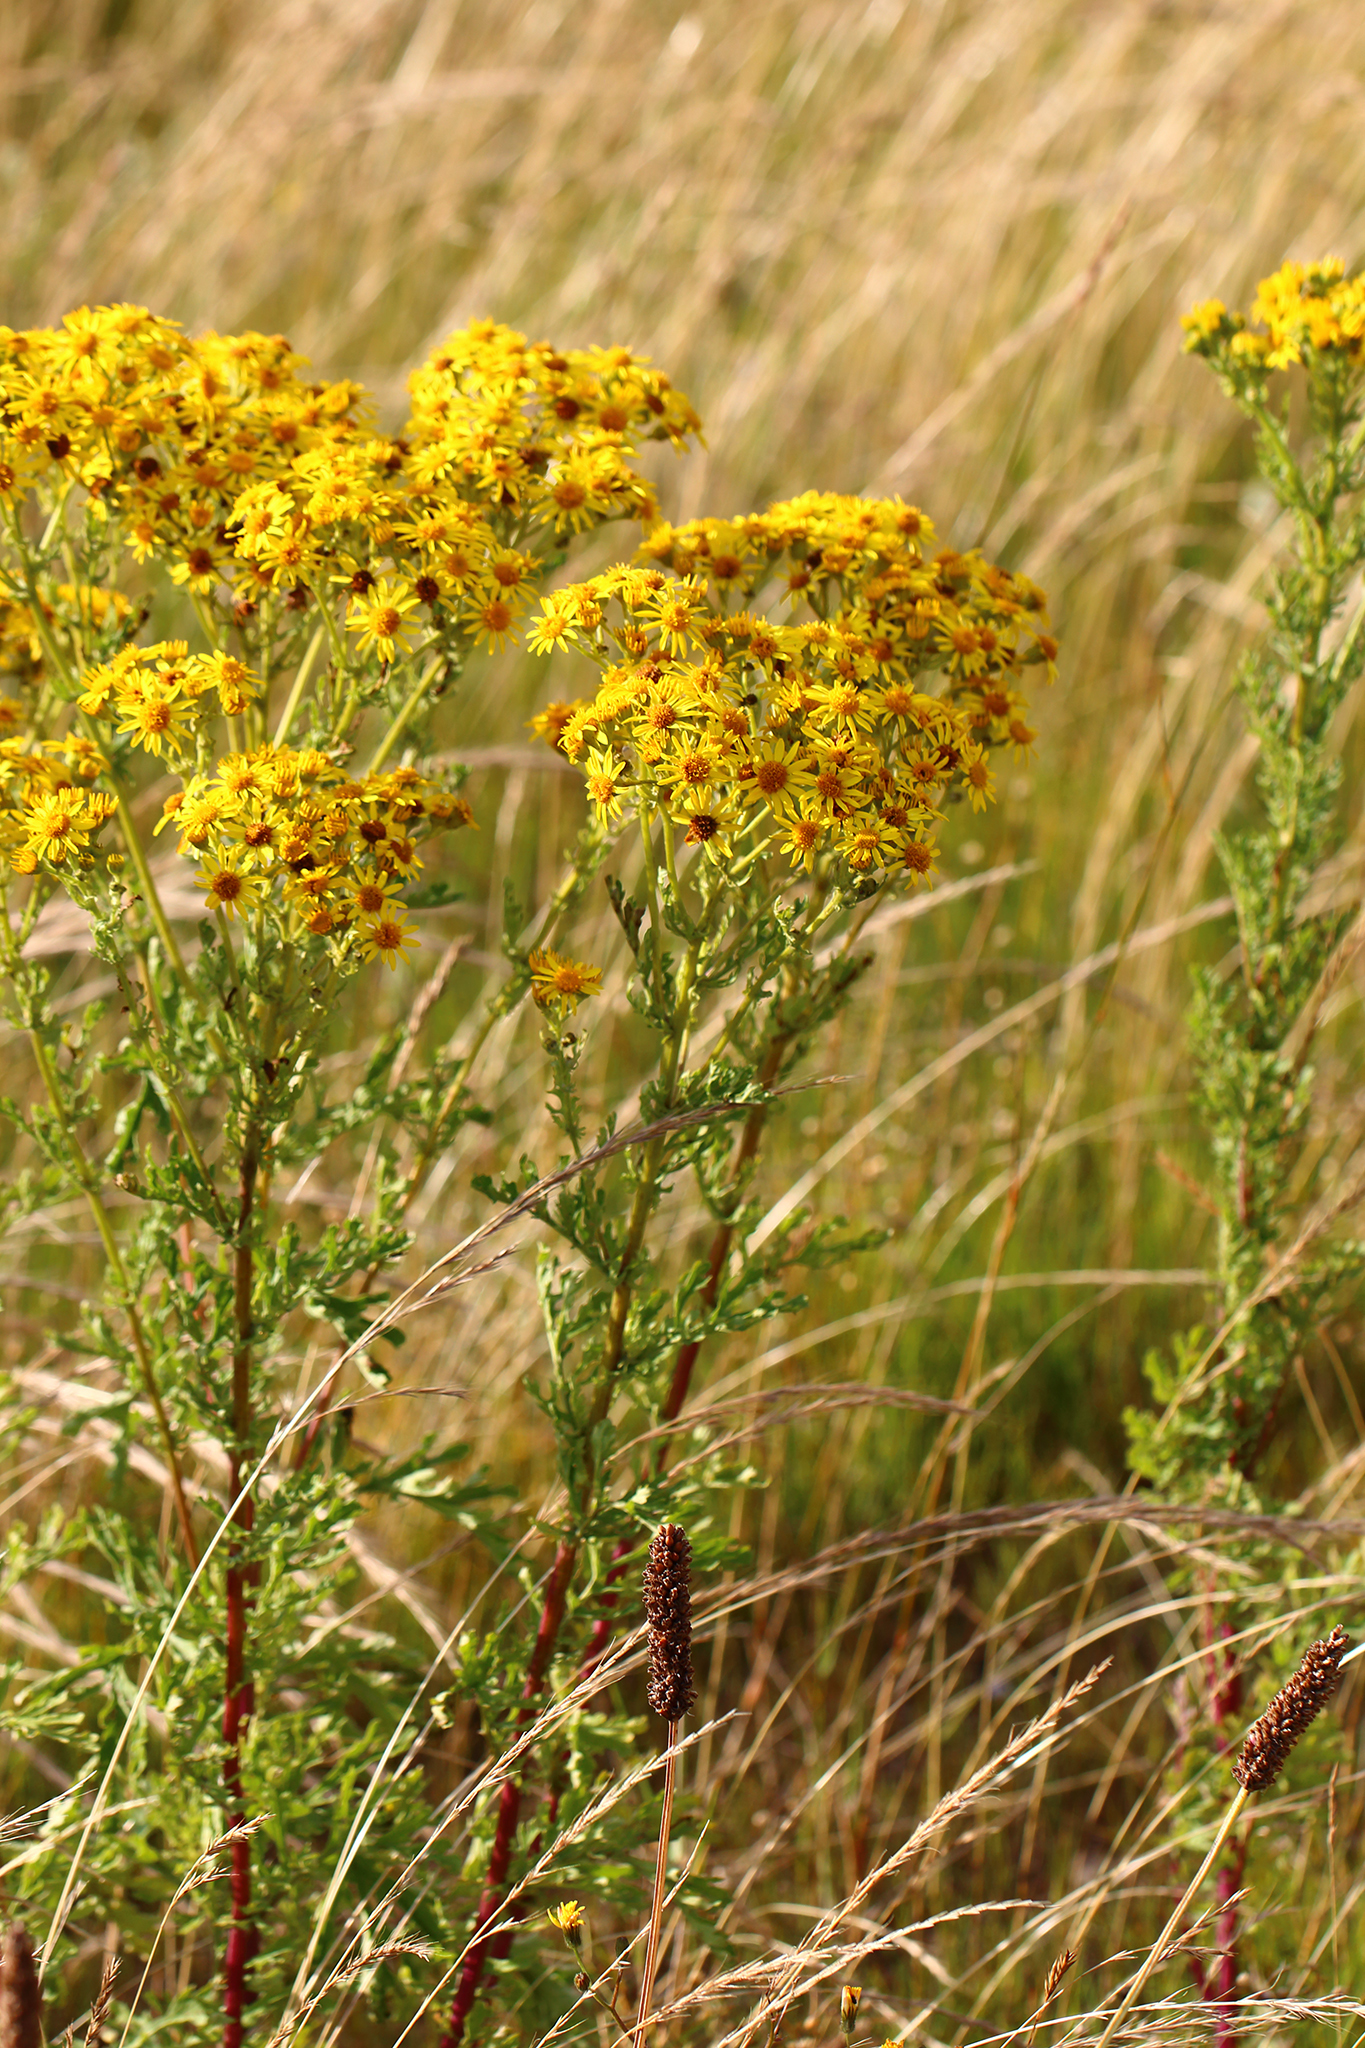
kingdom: Plantae
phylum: Tracheophyta
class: Magnoliopsida
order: Asterales
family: Asteraceae
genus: Jacobaea
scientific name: Jacobaea vulgaris
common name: Stinking willie
